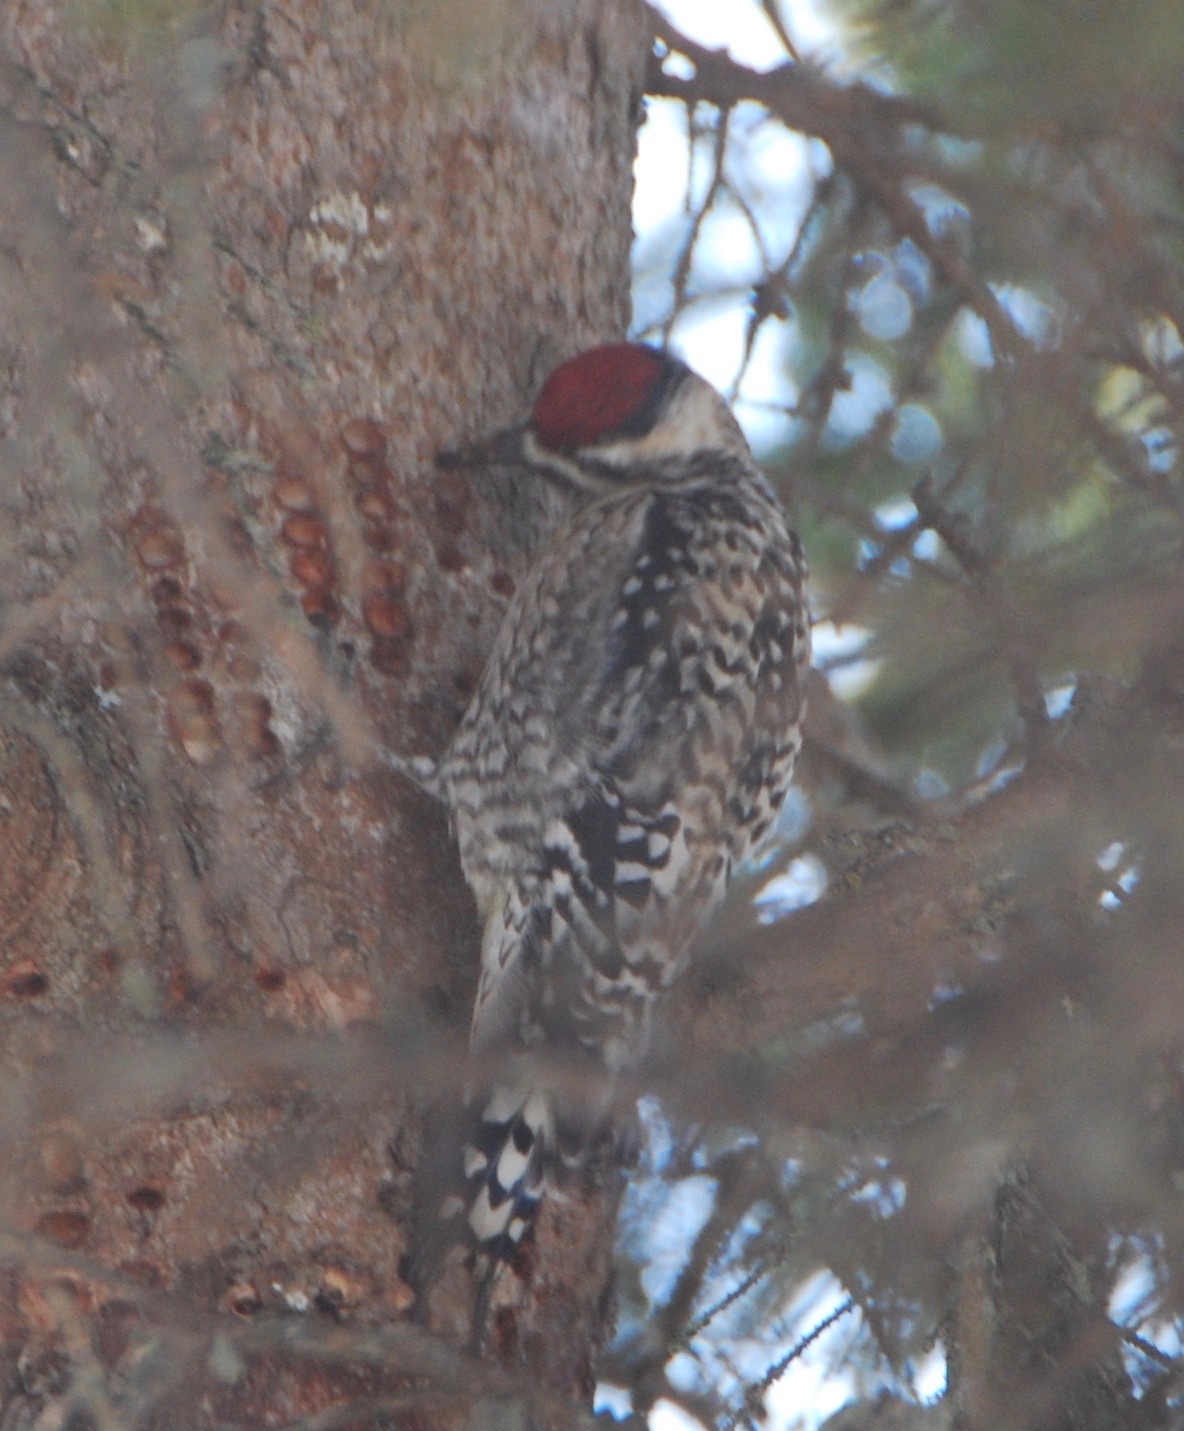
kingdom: Animalia
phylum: Chordata
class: Aves
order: Piciformes
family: Picidae
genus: Sphyrapicus
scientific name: Sphyrapicus varius
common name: Yellow-bellied sapsucker
